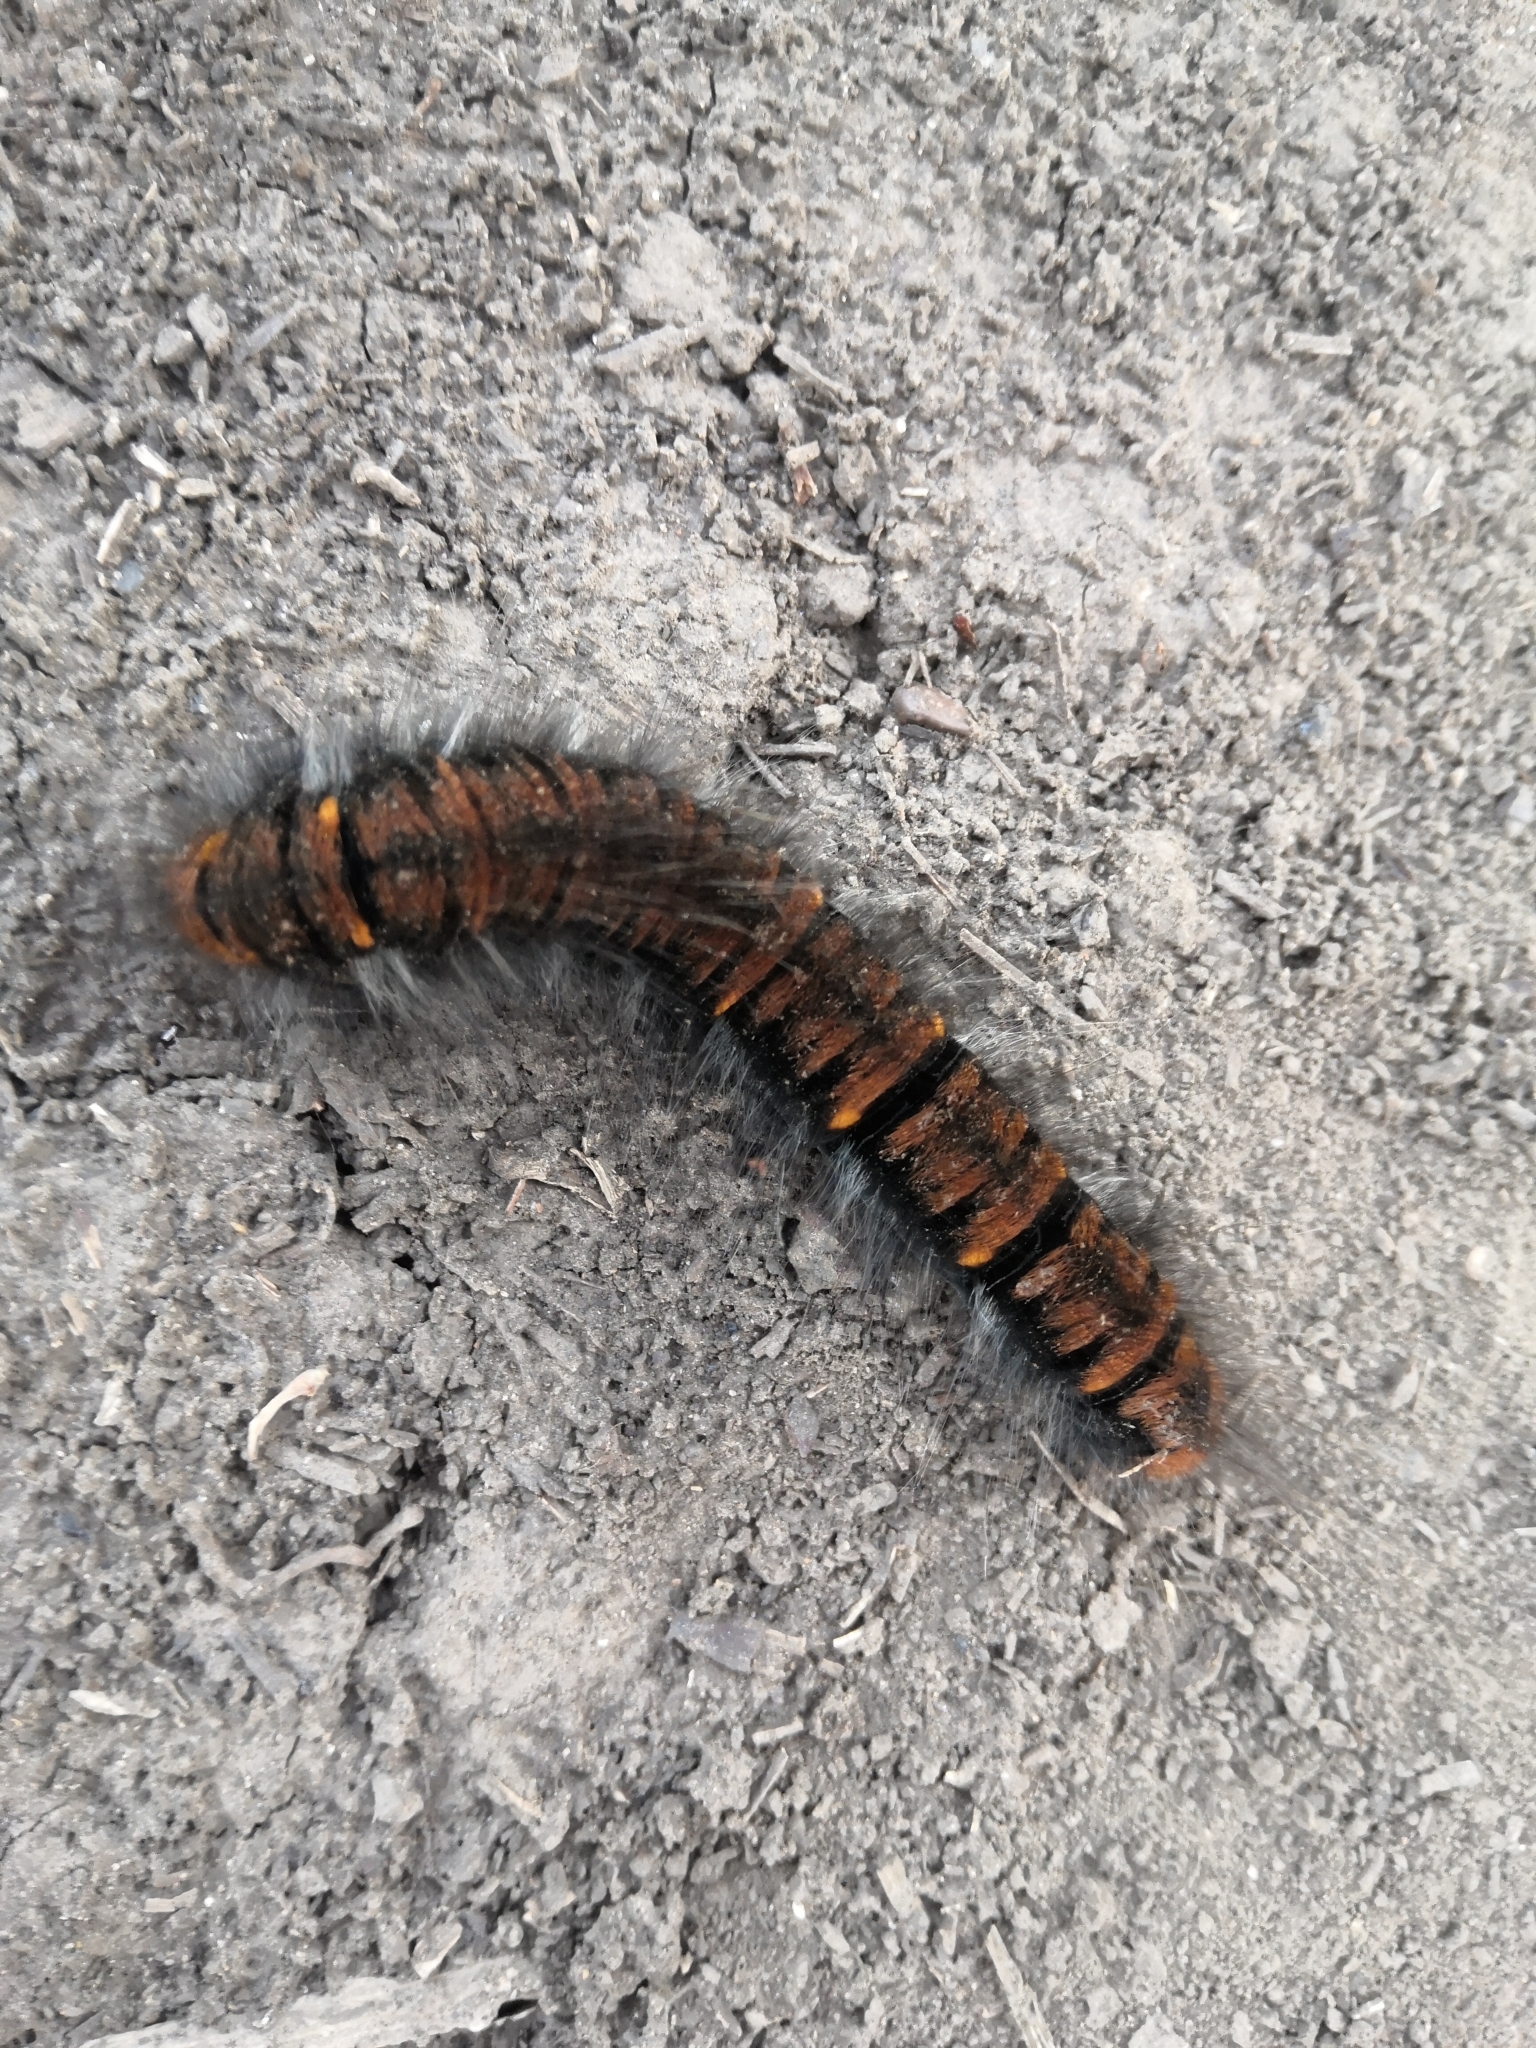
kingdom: Animalia
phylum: Arthropoda
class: Insecta
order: Lepidoptera
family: Lasiocampidae
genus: Macrothylacia
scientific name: Macrothylacia rubi
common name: Fox moth
